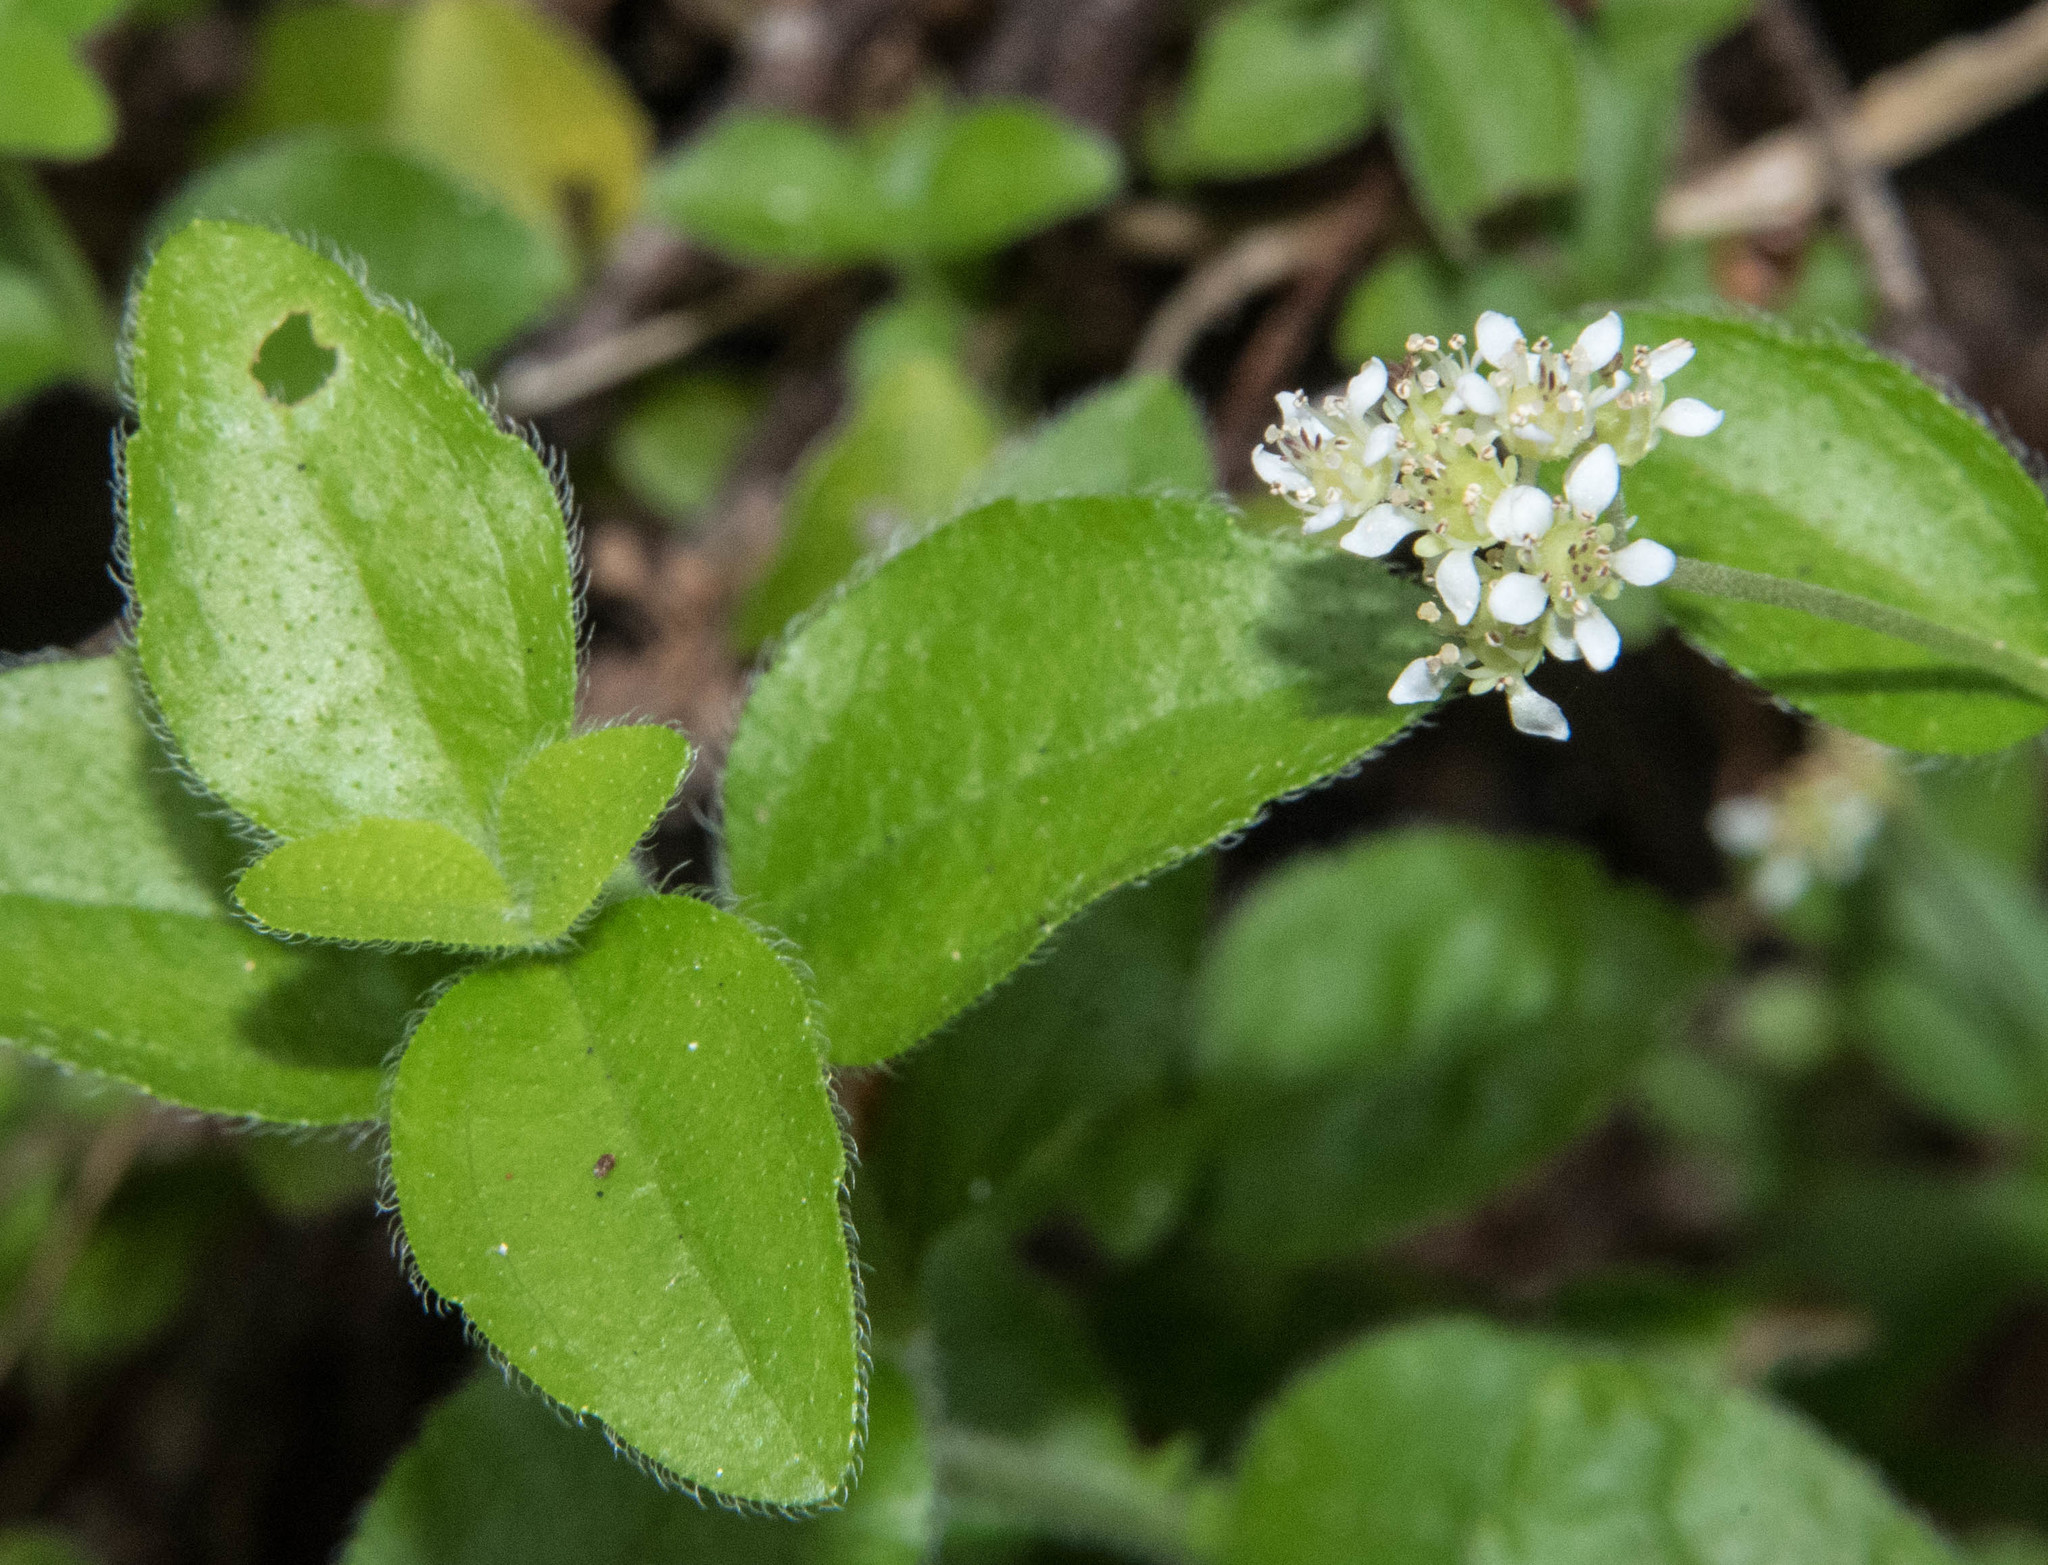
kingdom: Plantae
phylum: Tracheophyta
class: Magnoliopsida
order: Cornales
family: Hydrangeaceae
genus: Whipplea
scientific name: Whipplea modesta
